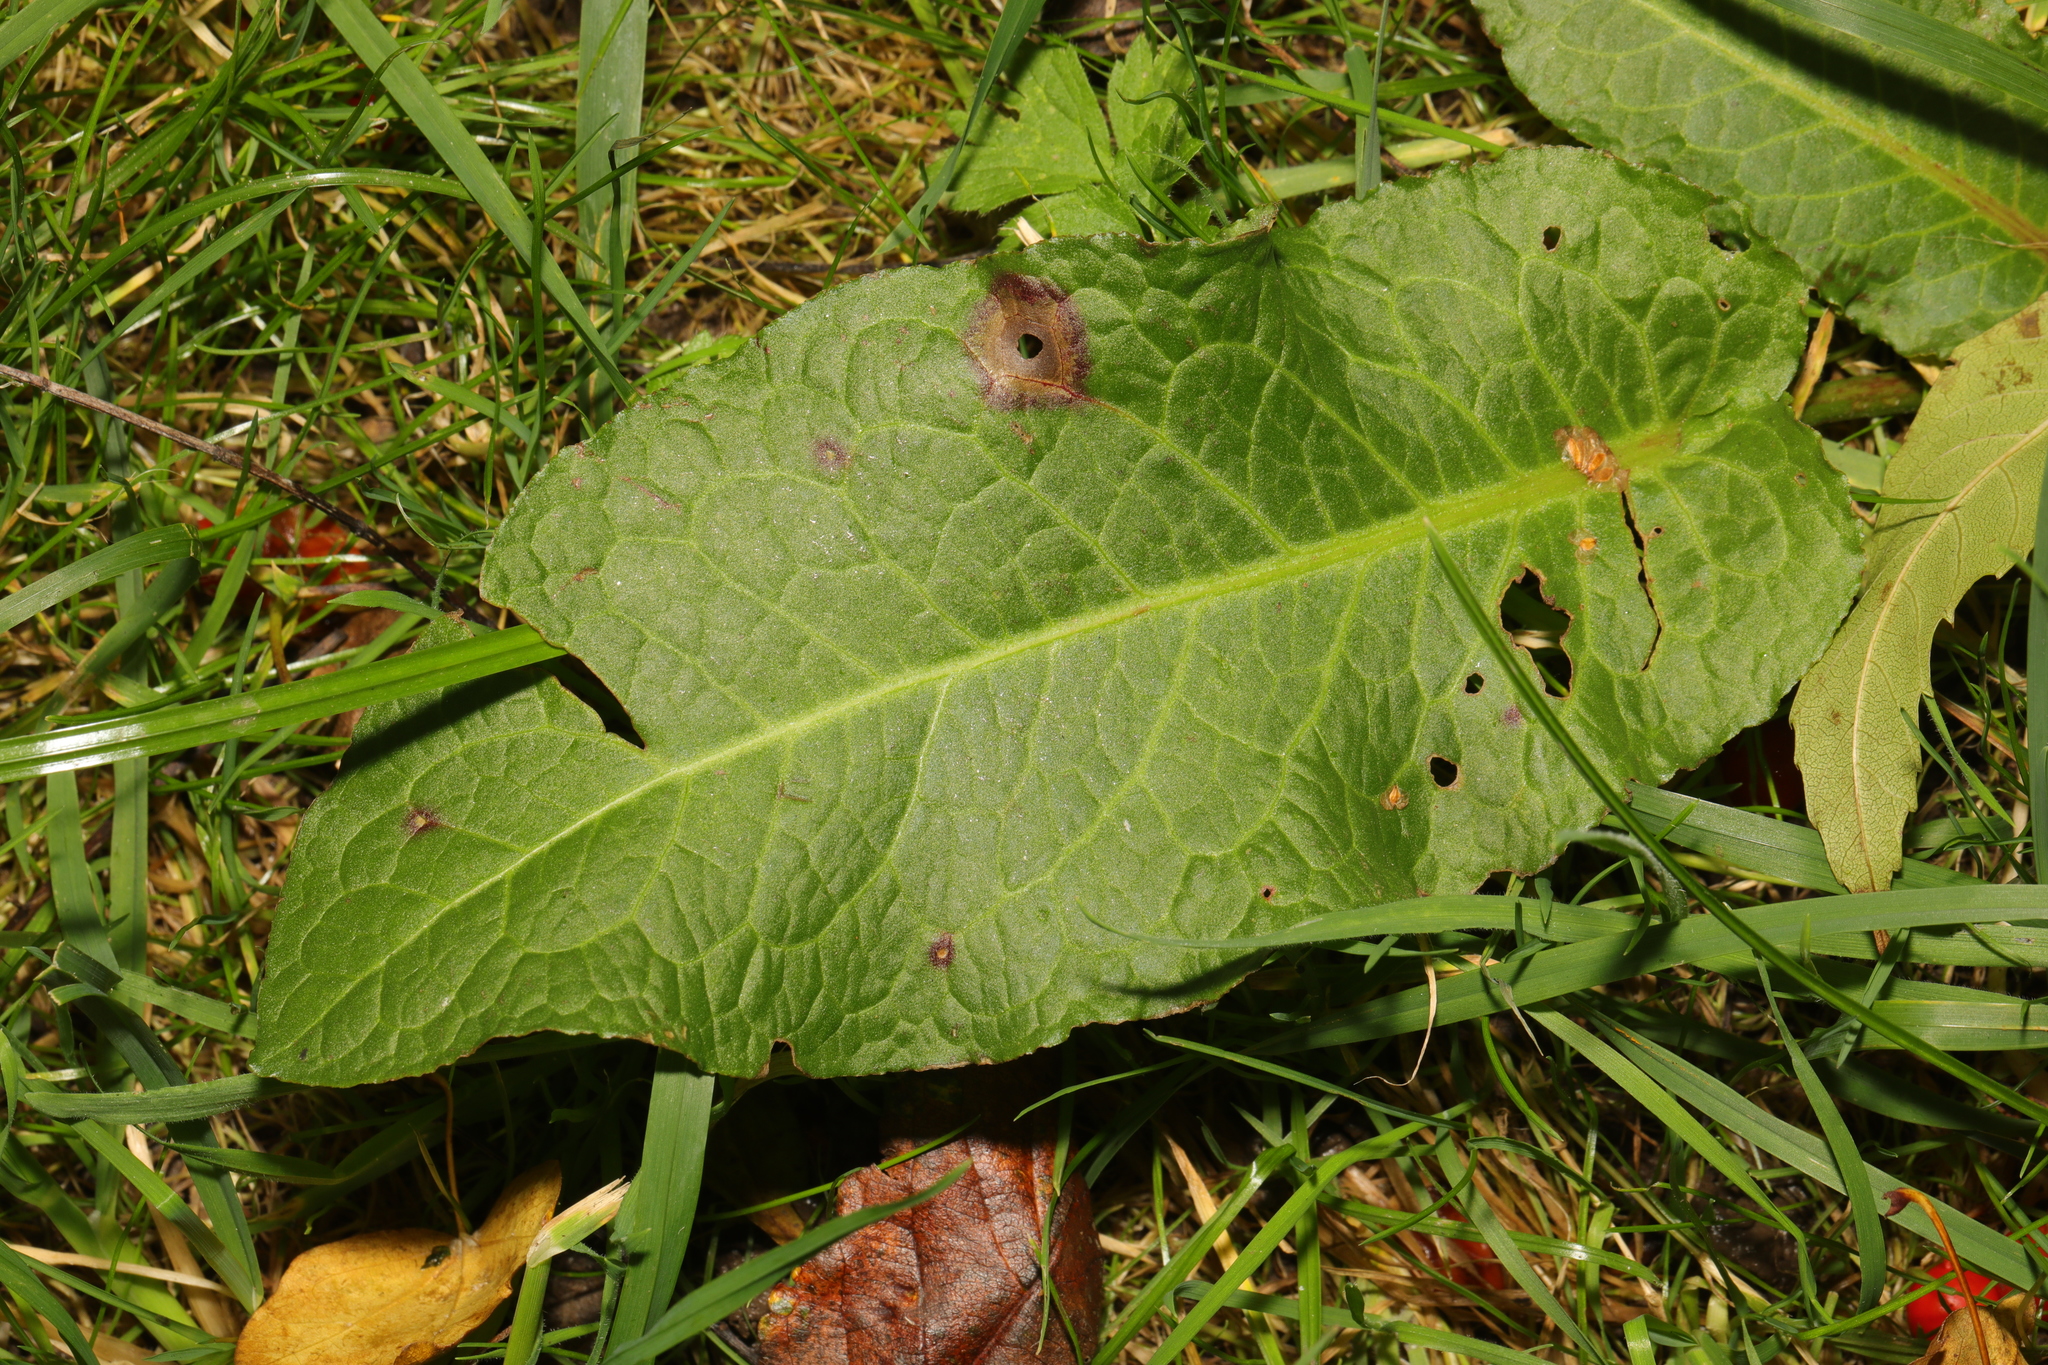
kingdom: Plantae
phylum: Tracheophyta
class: Magnoliopsida
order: Caryophyllales
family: Polygonaceae
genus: Rumex
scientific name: Rumex obtusifolius
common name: Bitter dock
